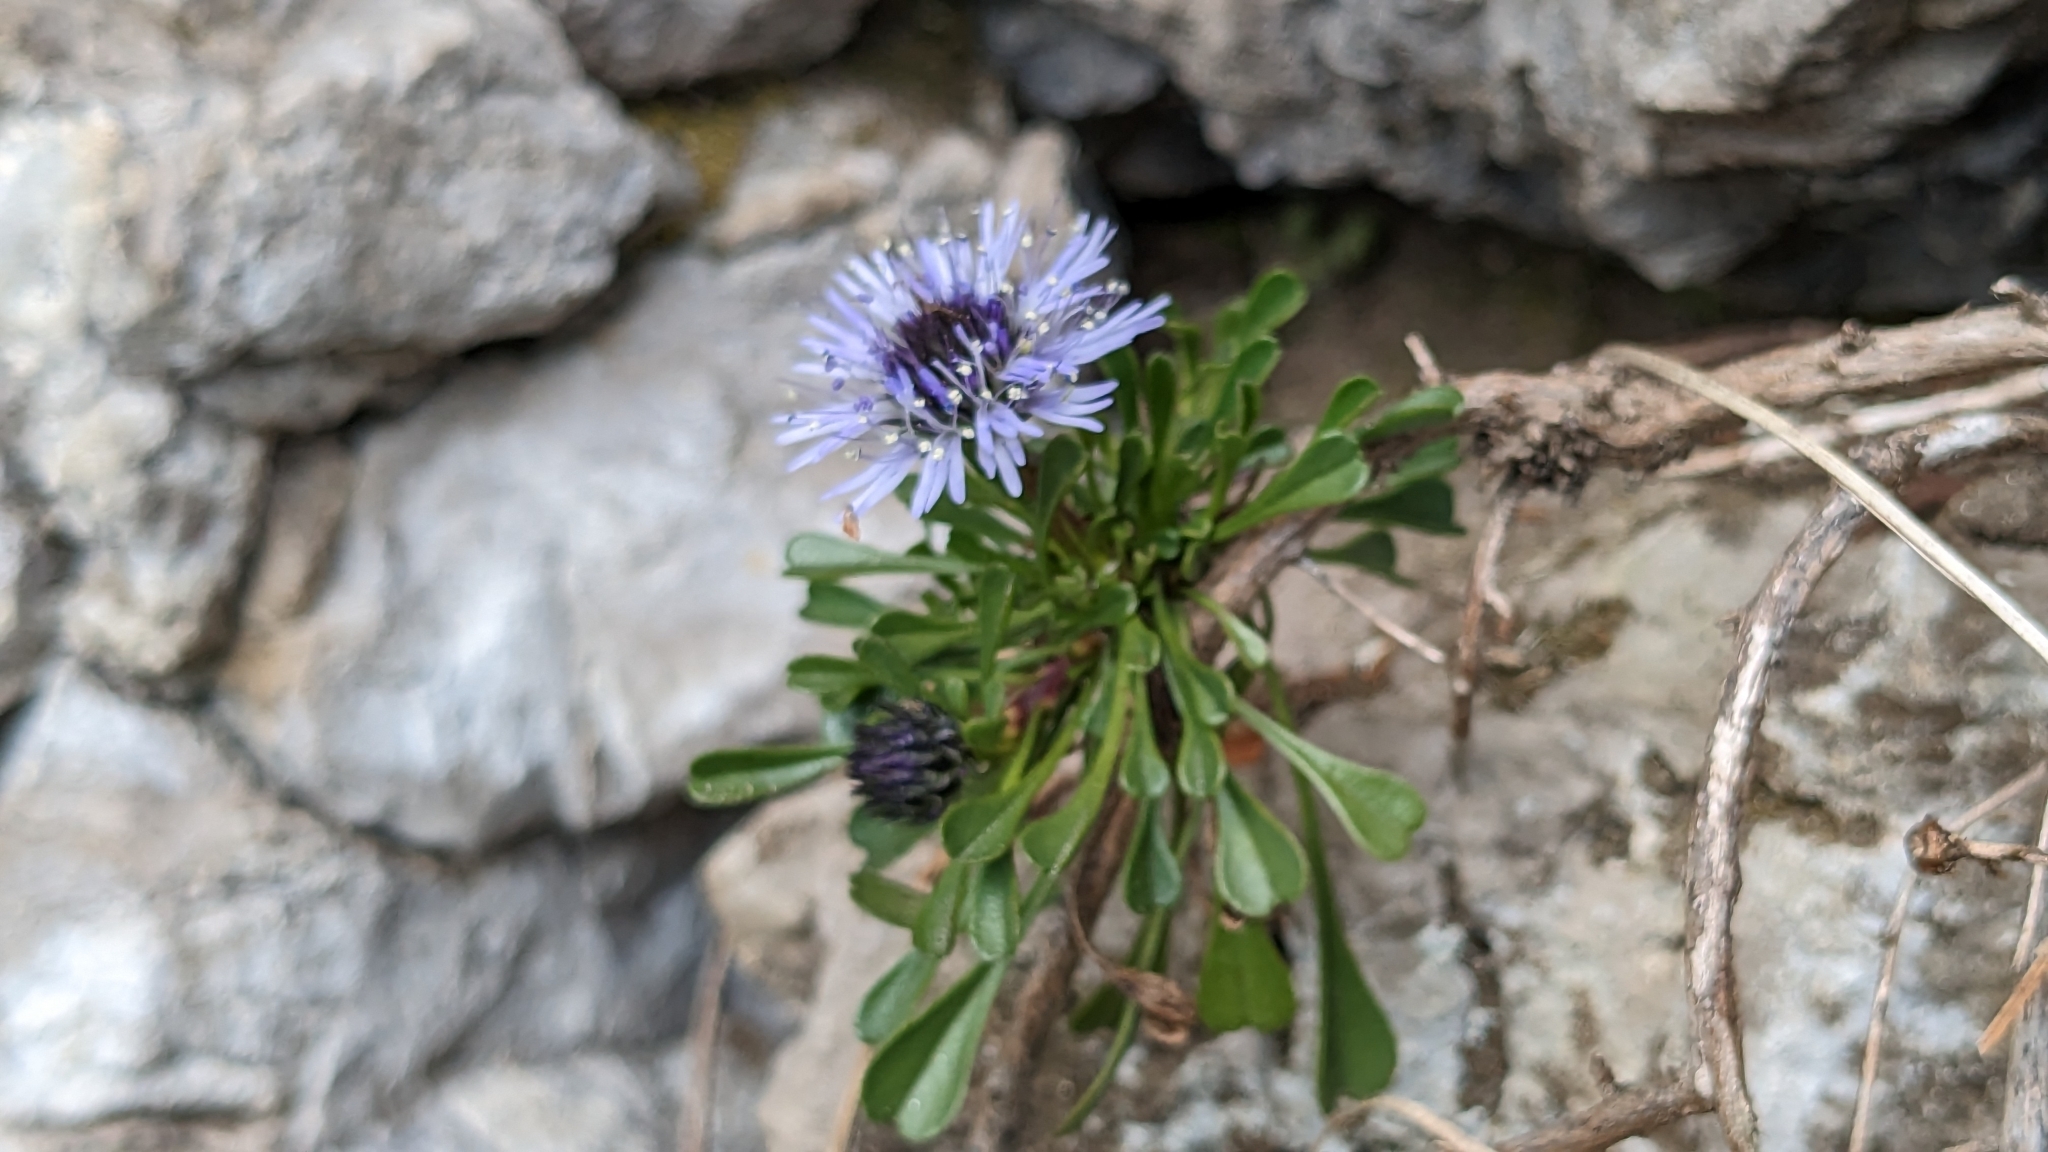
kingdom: Plantae
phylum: Tracheophyta
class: Magnoliopsida
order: Lamiales
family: Plantaginaceae
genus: Globularia
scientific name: Globularia cordifolia
